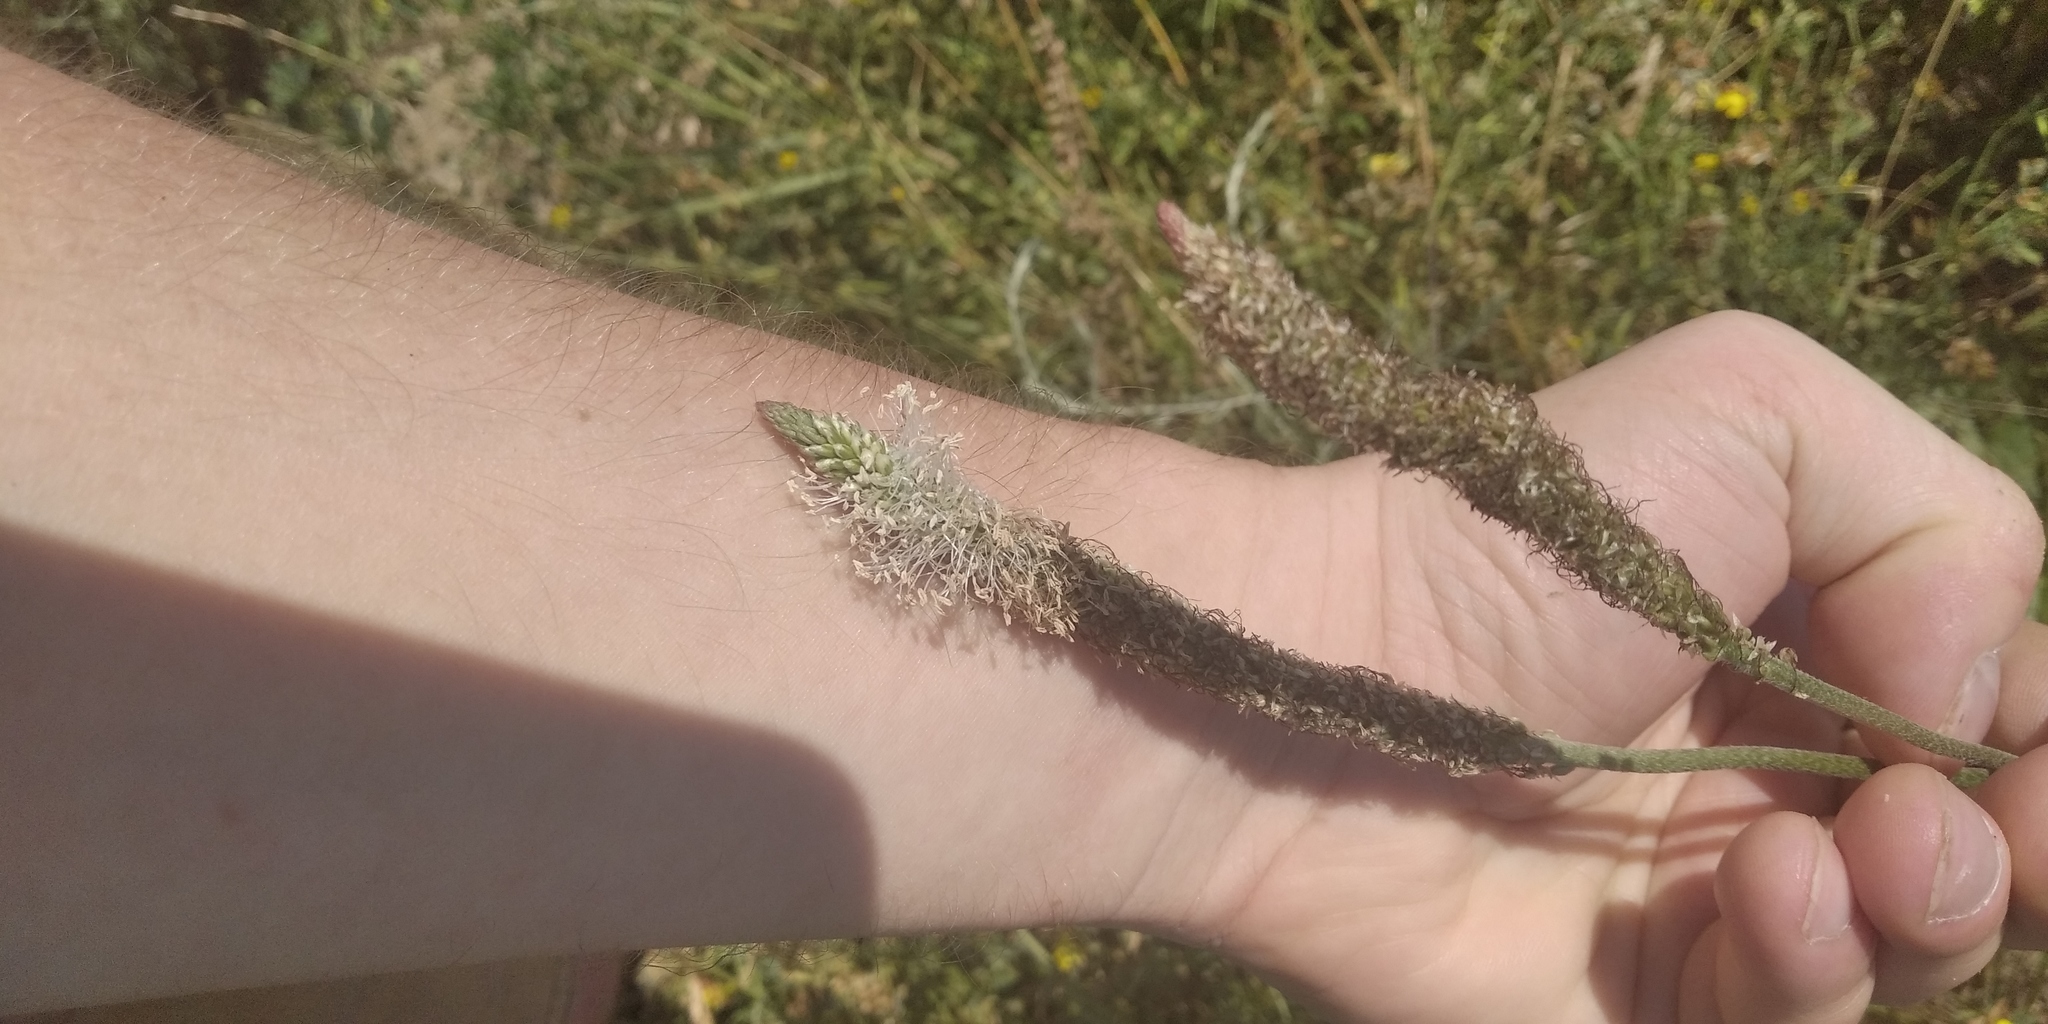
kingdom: Plantae
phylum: Tracheophyta
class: Magnoliopsida
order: Lamiales
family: Plantaginaceae
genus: Plantago
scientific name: Plantago urvillei
